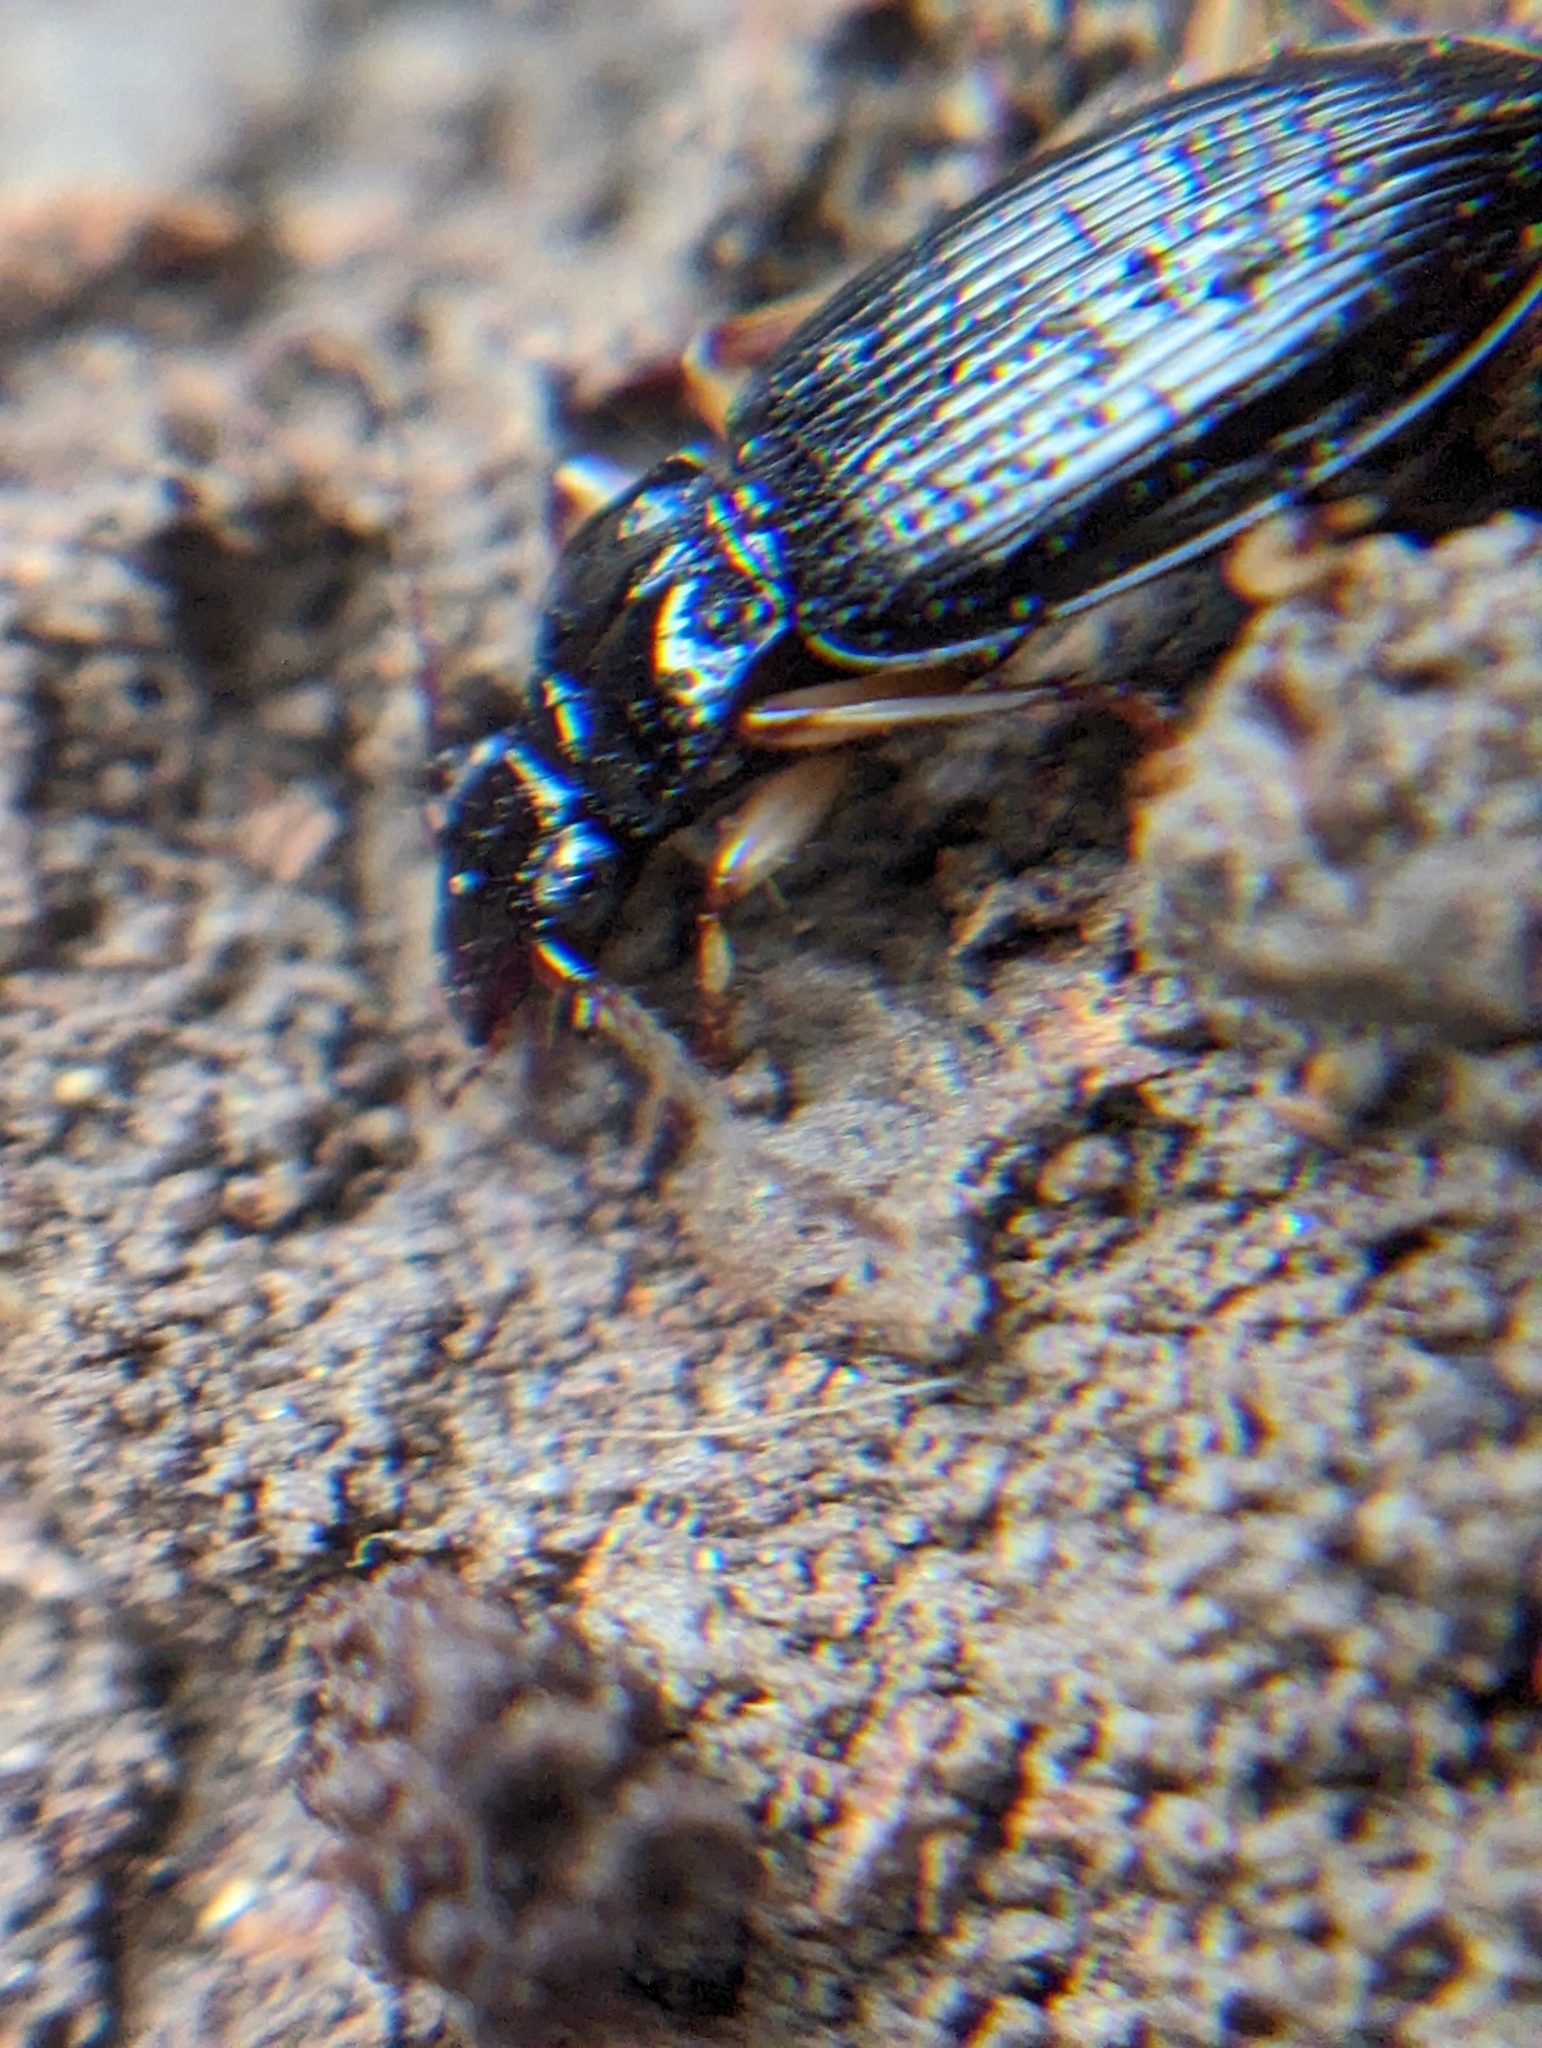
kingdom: Animalia
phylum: Arthropoda
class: Insecta
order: Coleoptera
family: Carabidae
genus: Patrobus
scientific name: Patrobus longicornis
